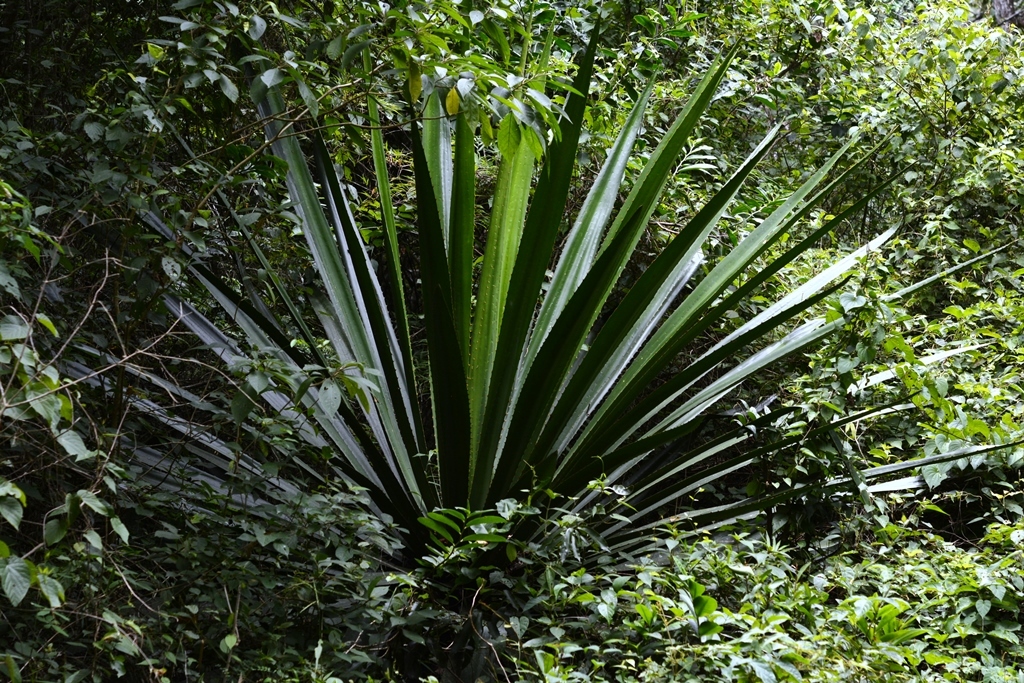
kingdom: Plantae
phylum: Tracheophyta
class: Liliopsida
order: Asparagales
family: Asparagaceae
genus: Furcraea
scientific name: Furcraea cabuya
